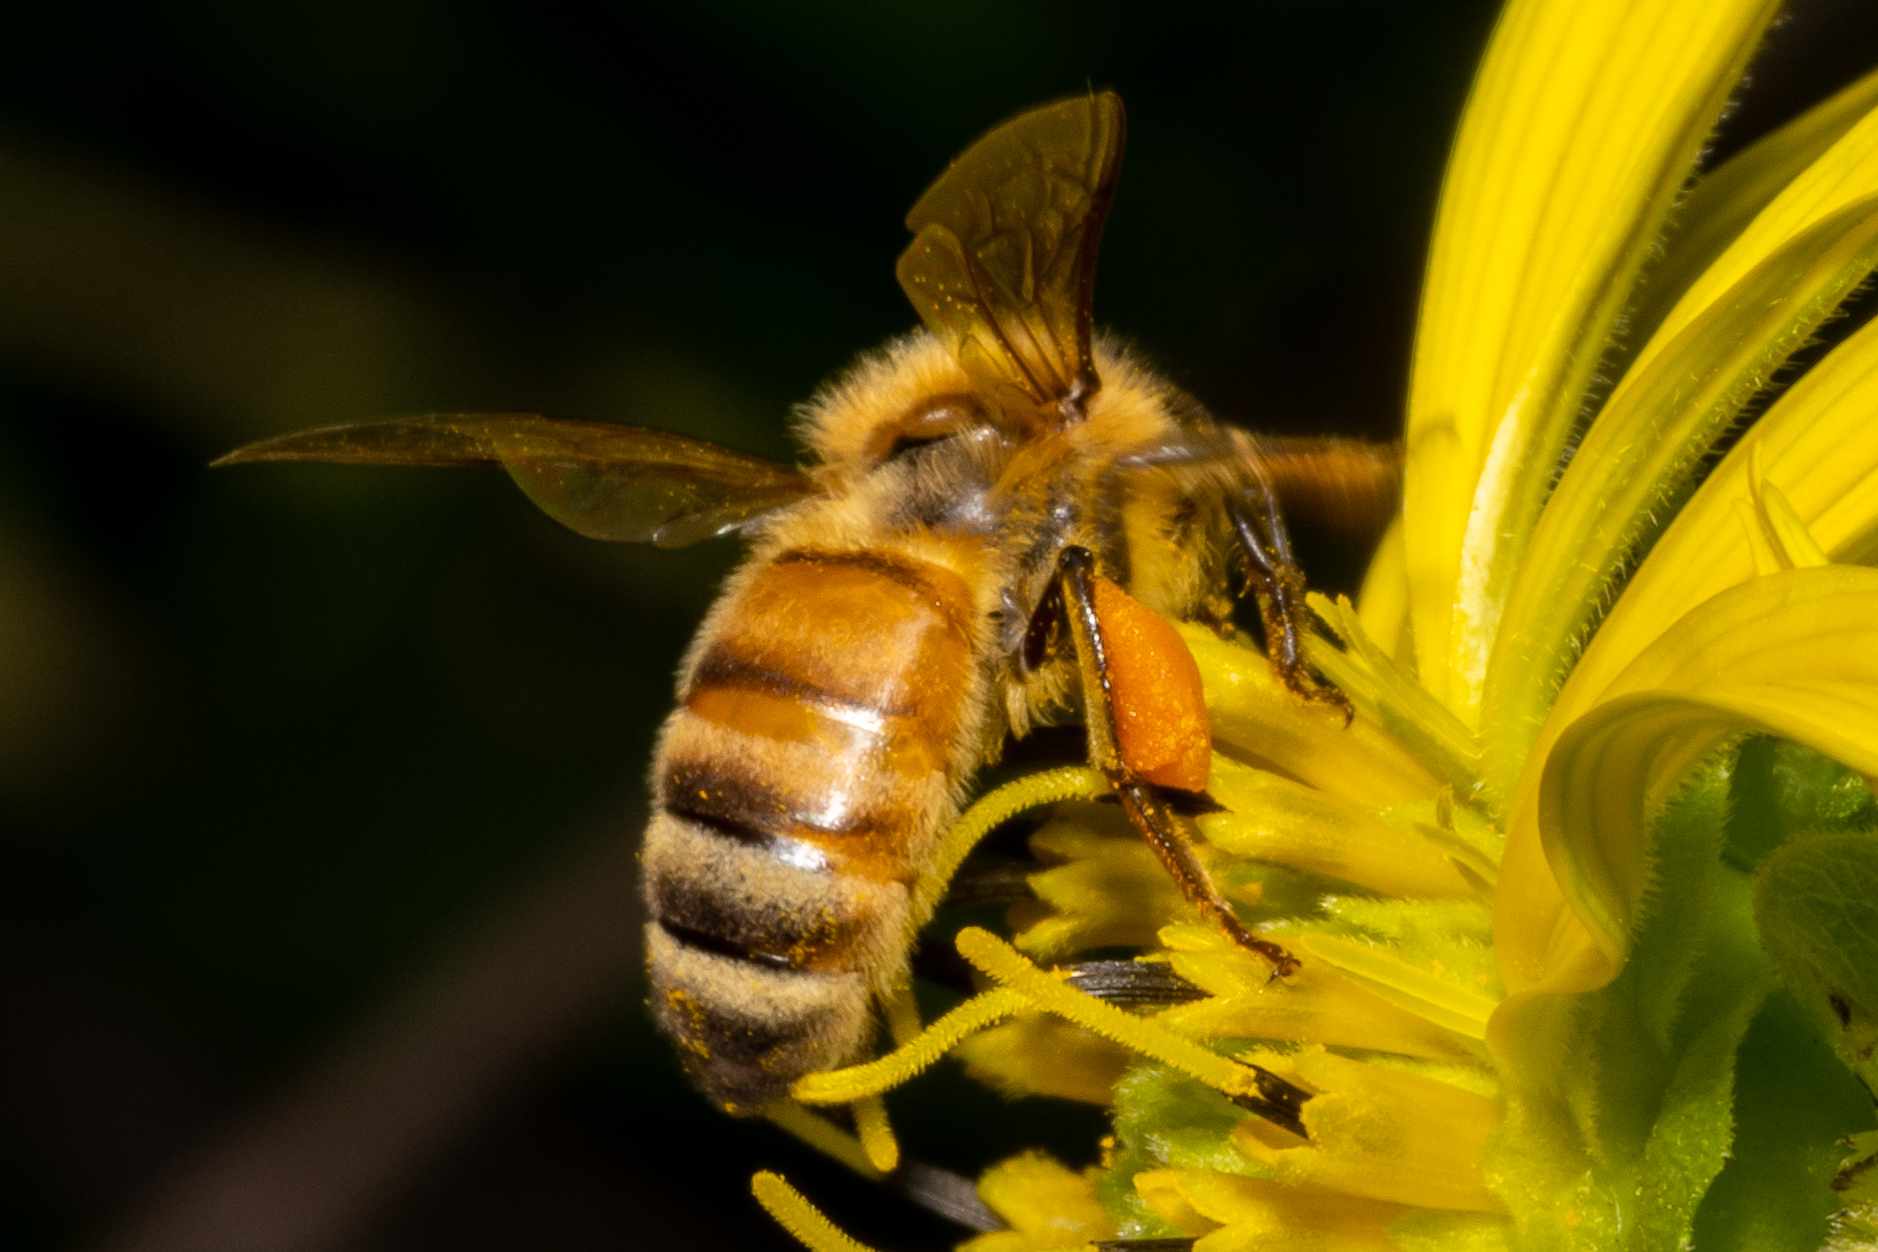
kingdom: Animalia
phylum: Arthropoda
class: Insecta
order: Hymenoptera
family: Apidae
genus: Apis
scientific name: Apis mellifera
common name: Honey bee
